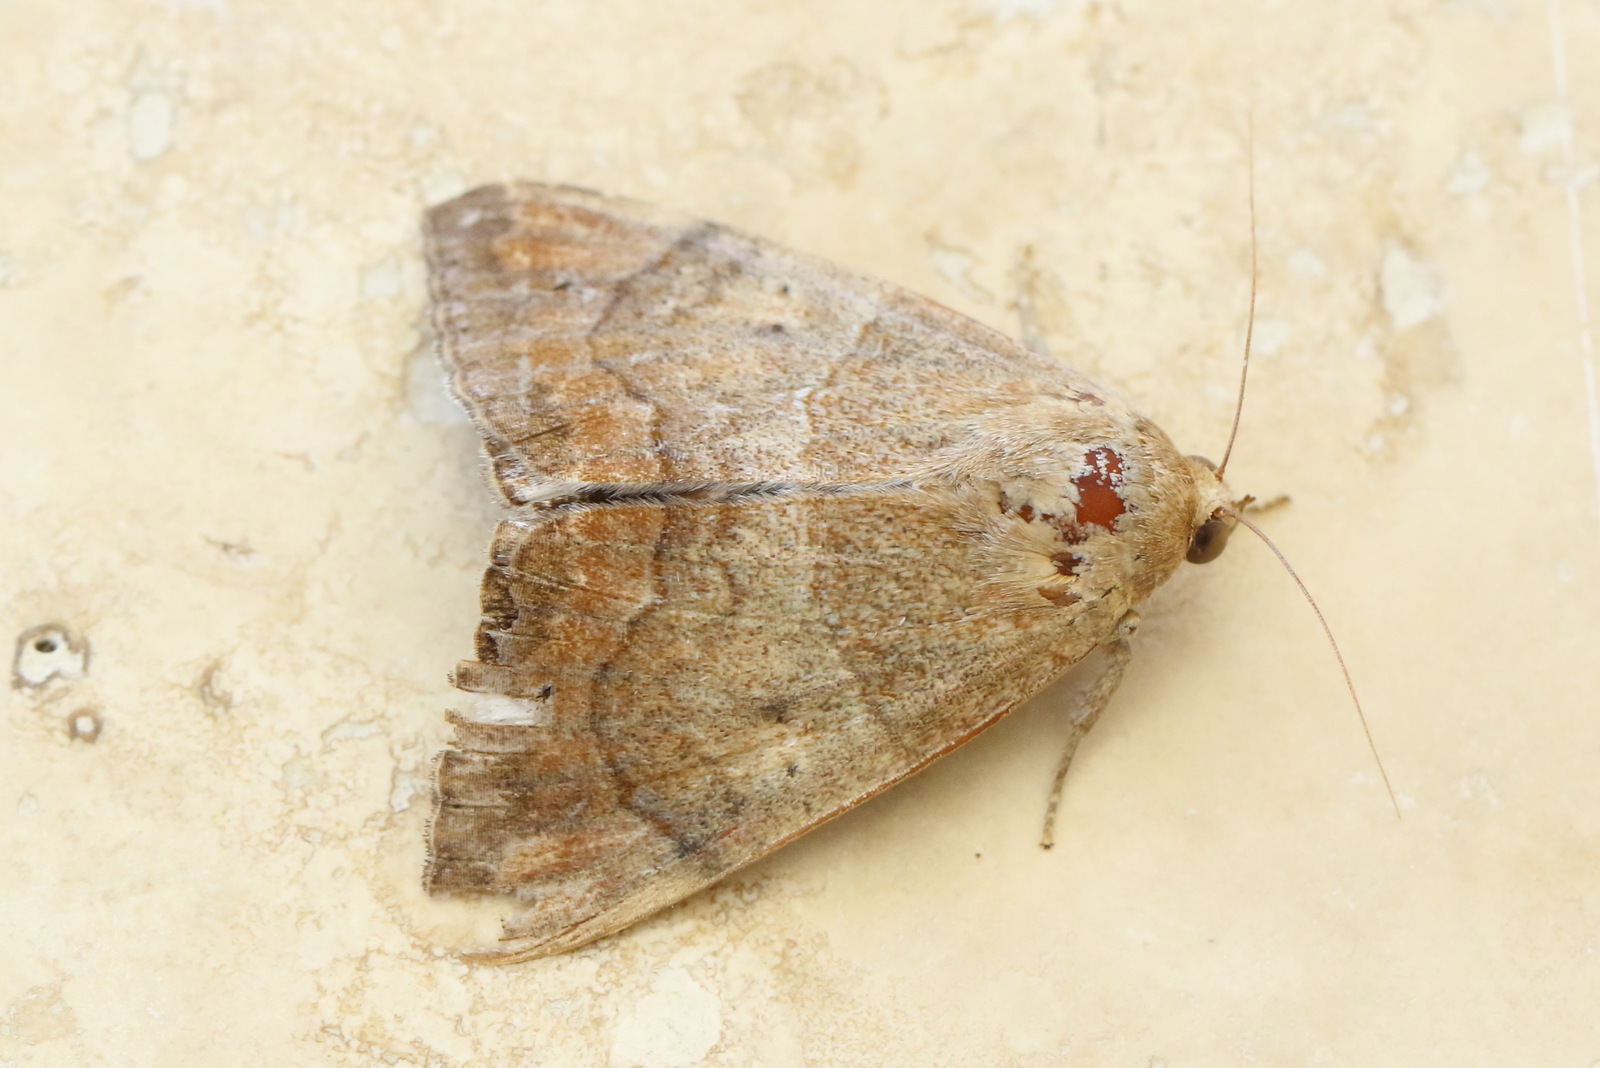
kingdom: Animalia
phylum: Arthropoda
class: Insecta
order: Lepidoptera
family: Erebidae
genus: Achaea
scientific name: Achaea janata
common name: Croton caterpillar
